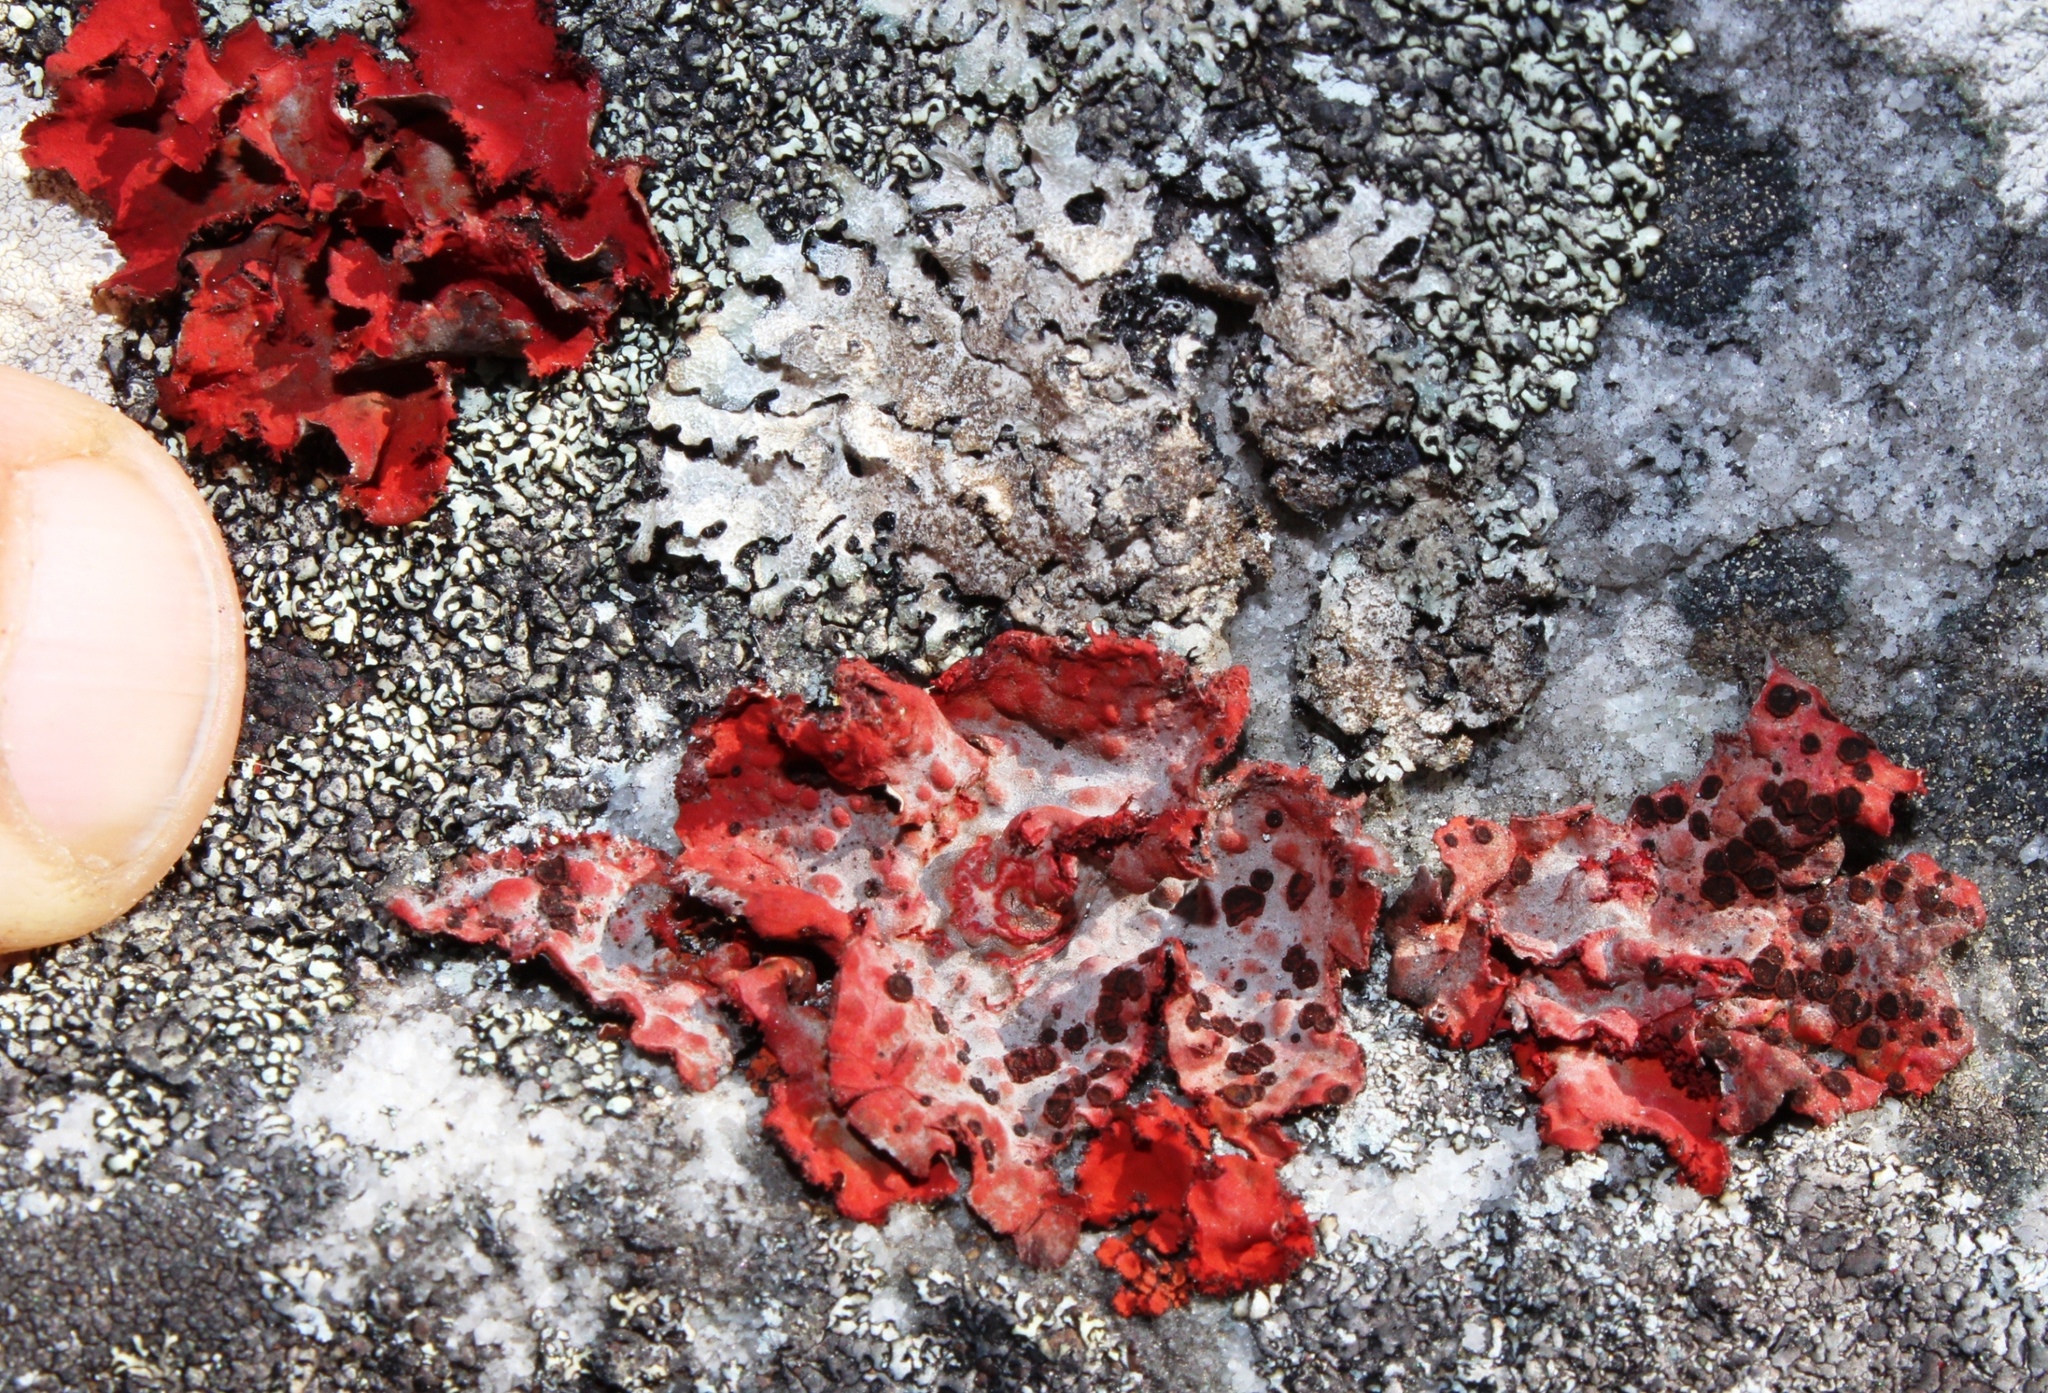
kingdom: Fungi
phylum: Ascomycota
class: Lecanoromycetes
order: Umbilicariales
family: Umbilicariaceae
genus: Lasallia
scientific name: Lasallia rubiginosa
